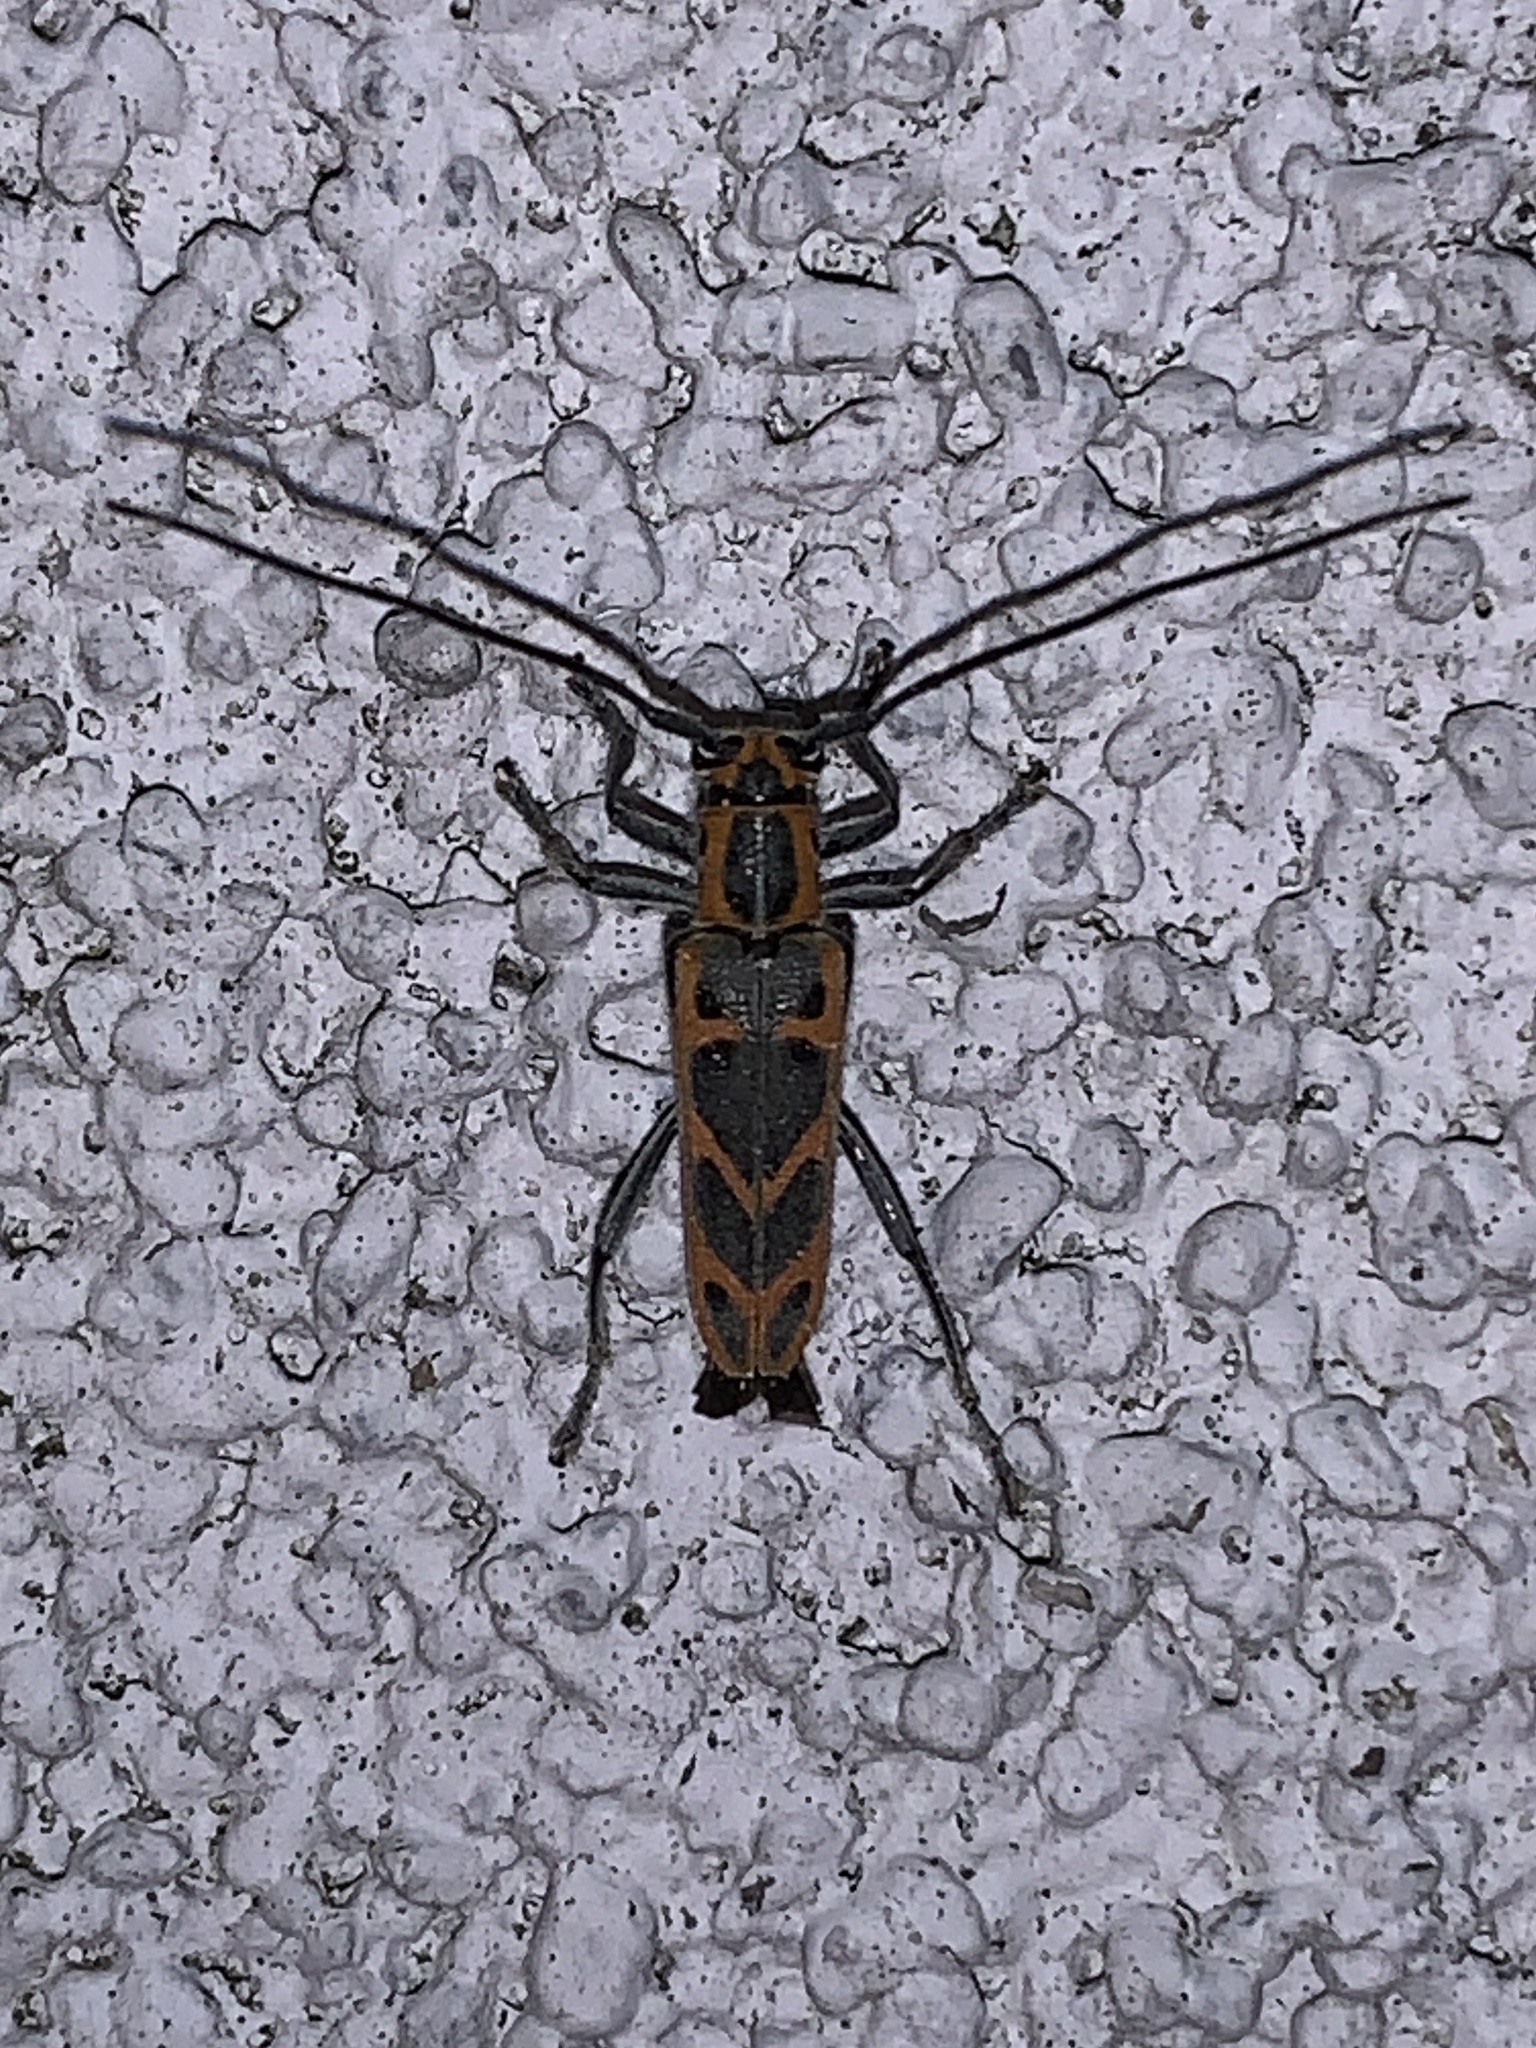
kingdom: Animalia
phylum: Arthropoda
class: Insecta
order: Coleoptera
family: Cerambycidae
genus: Saperda
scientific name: Saperda tridentata
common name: Elm borer
